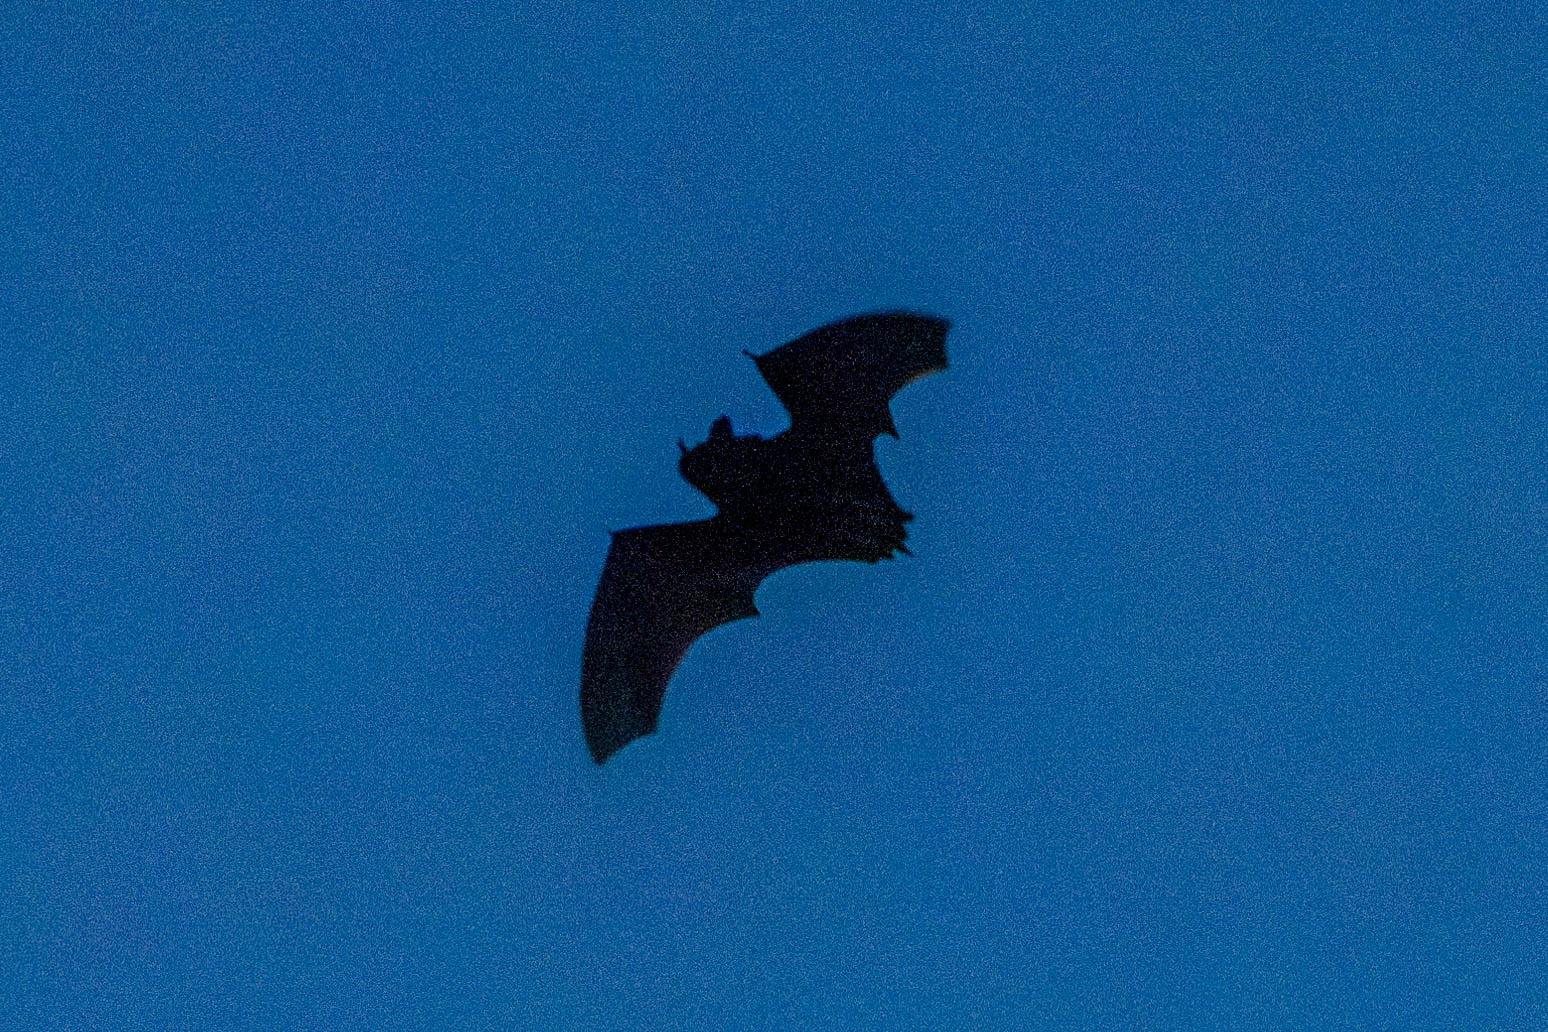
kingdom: Animalia
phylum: Chordata
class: Mammalia
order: Chiroptera
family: Vespertilionidae
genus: Eptesicus
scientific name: Eptesicus fuscus
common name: Big brown bat
